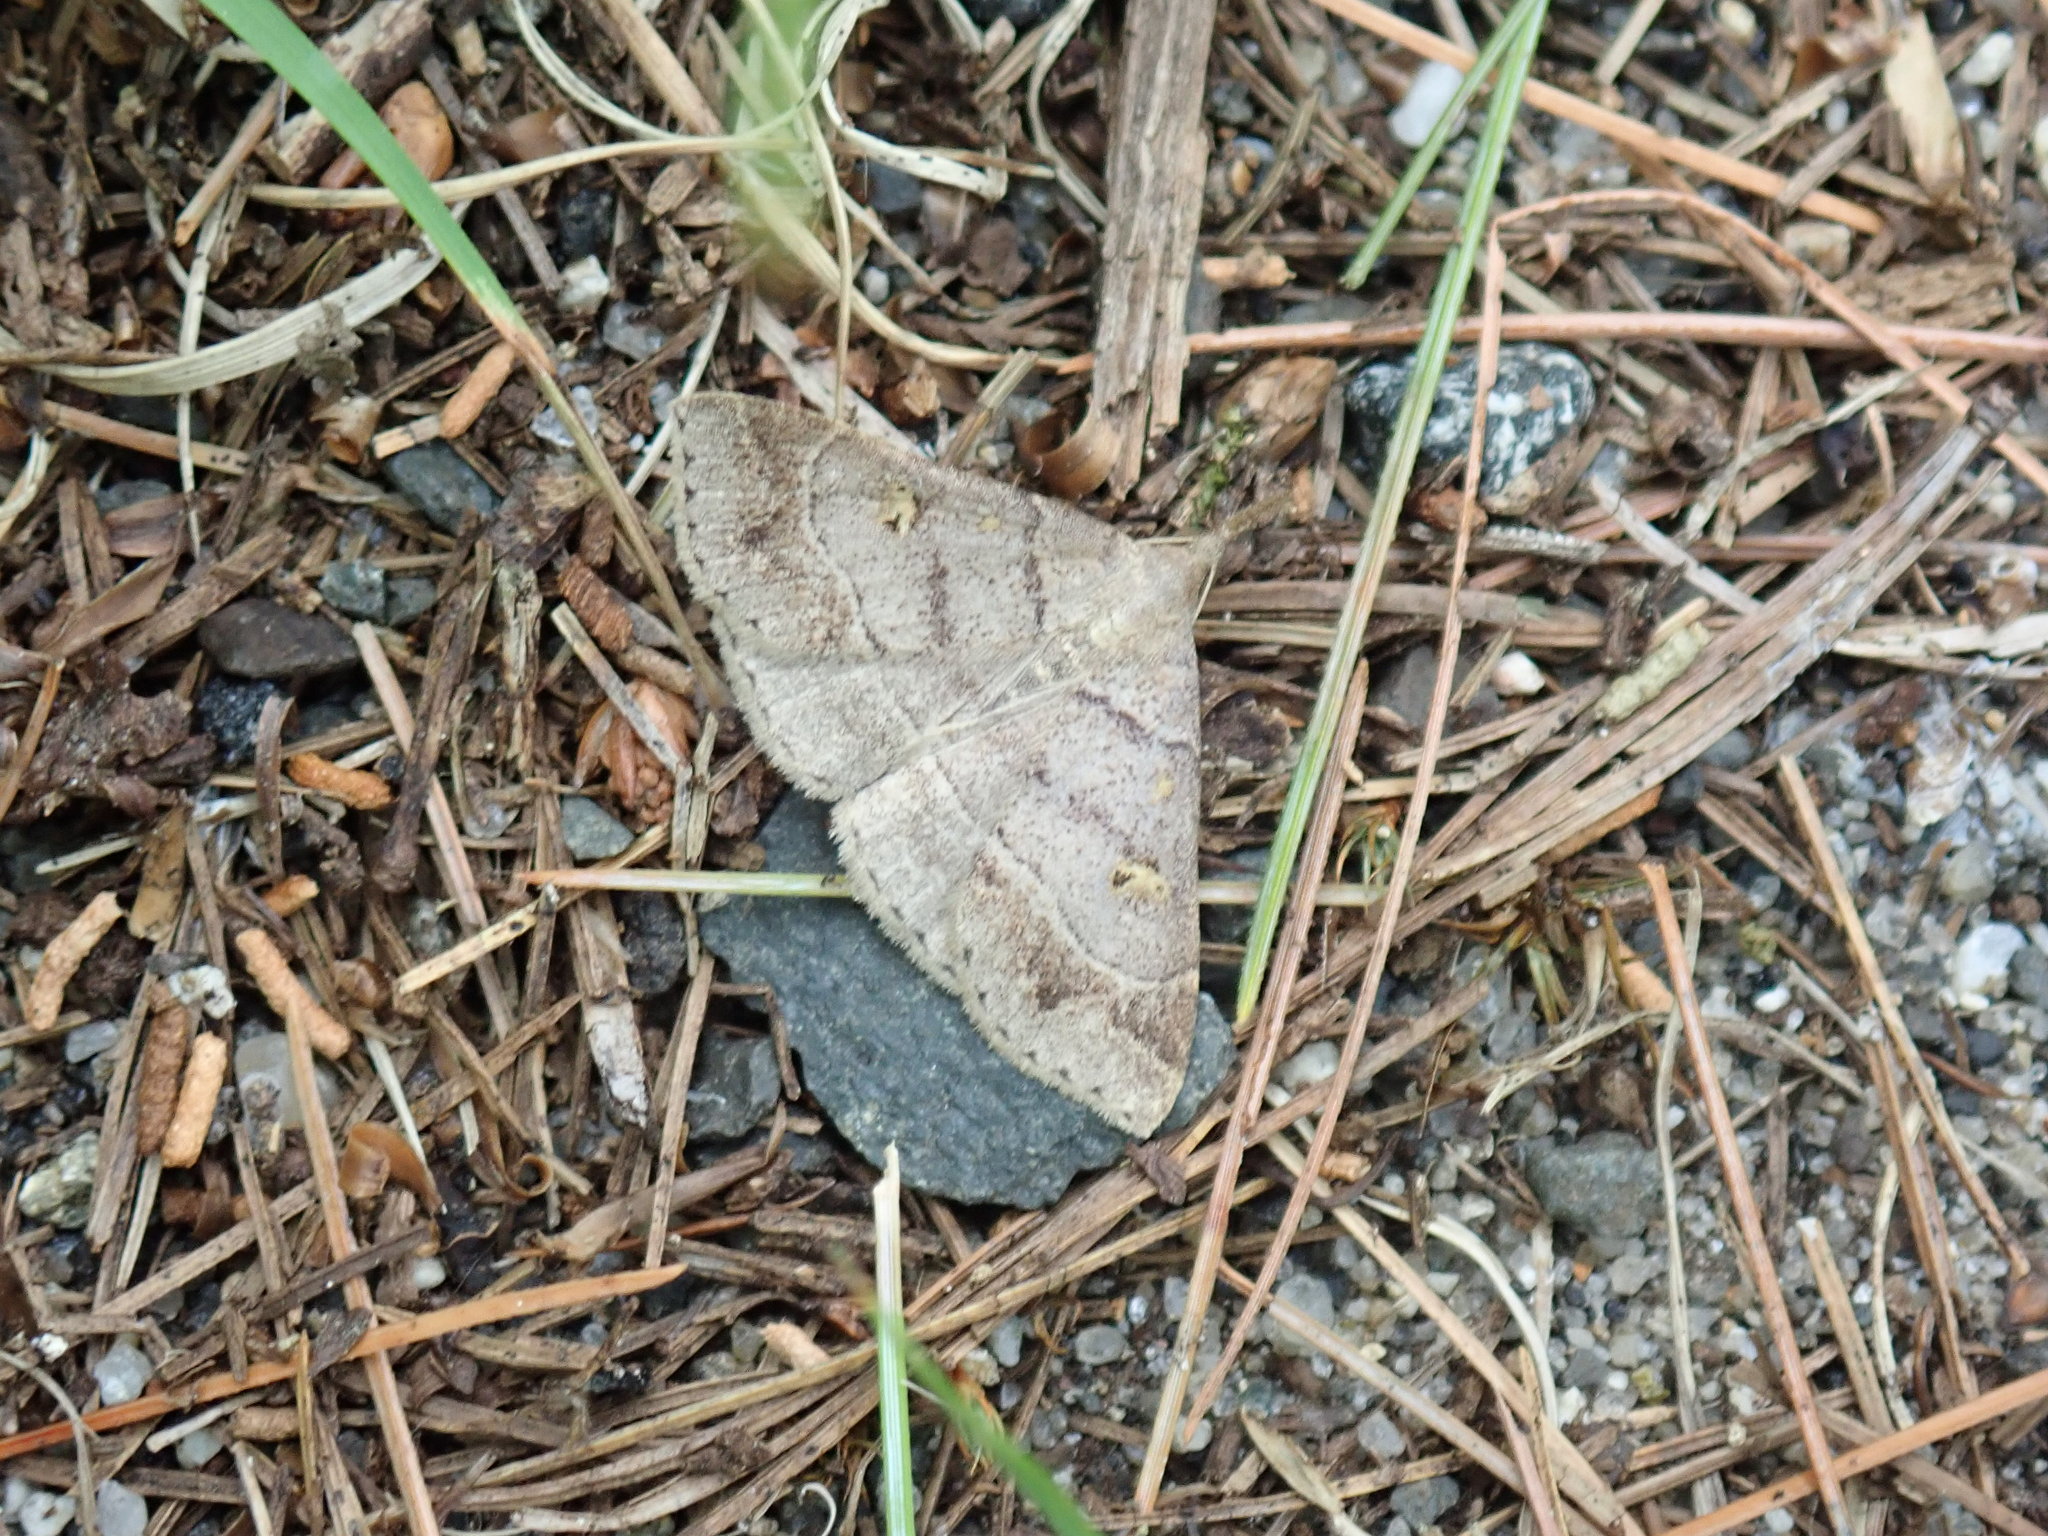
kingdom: Animalia
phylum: Arthropoda
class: Insecta
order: Lepidoptera
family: Erebidae
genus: Renia
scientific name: Renia flavipunctalis
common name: Yellow-spotted renia moth
